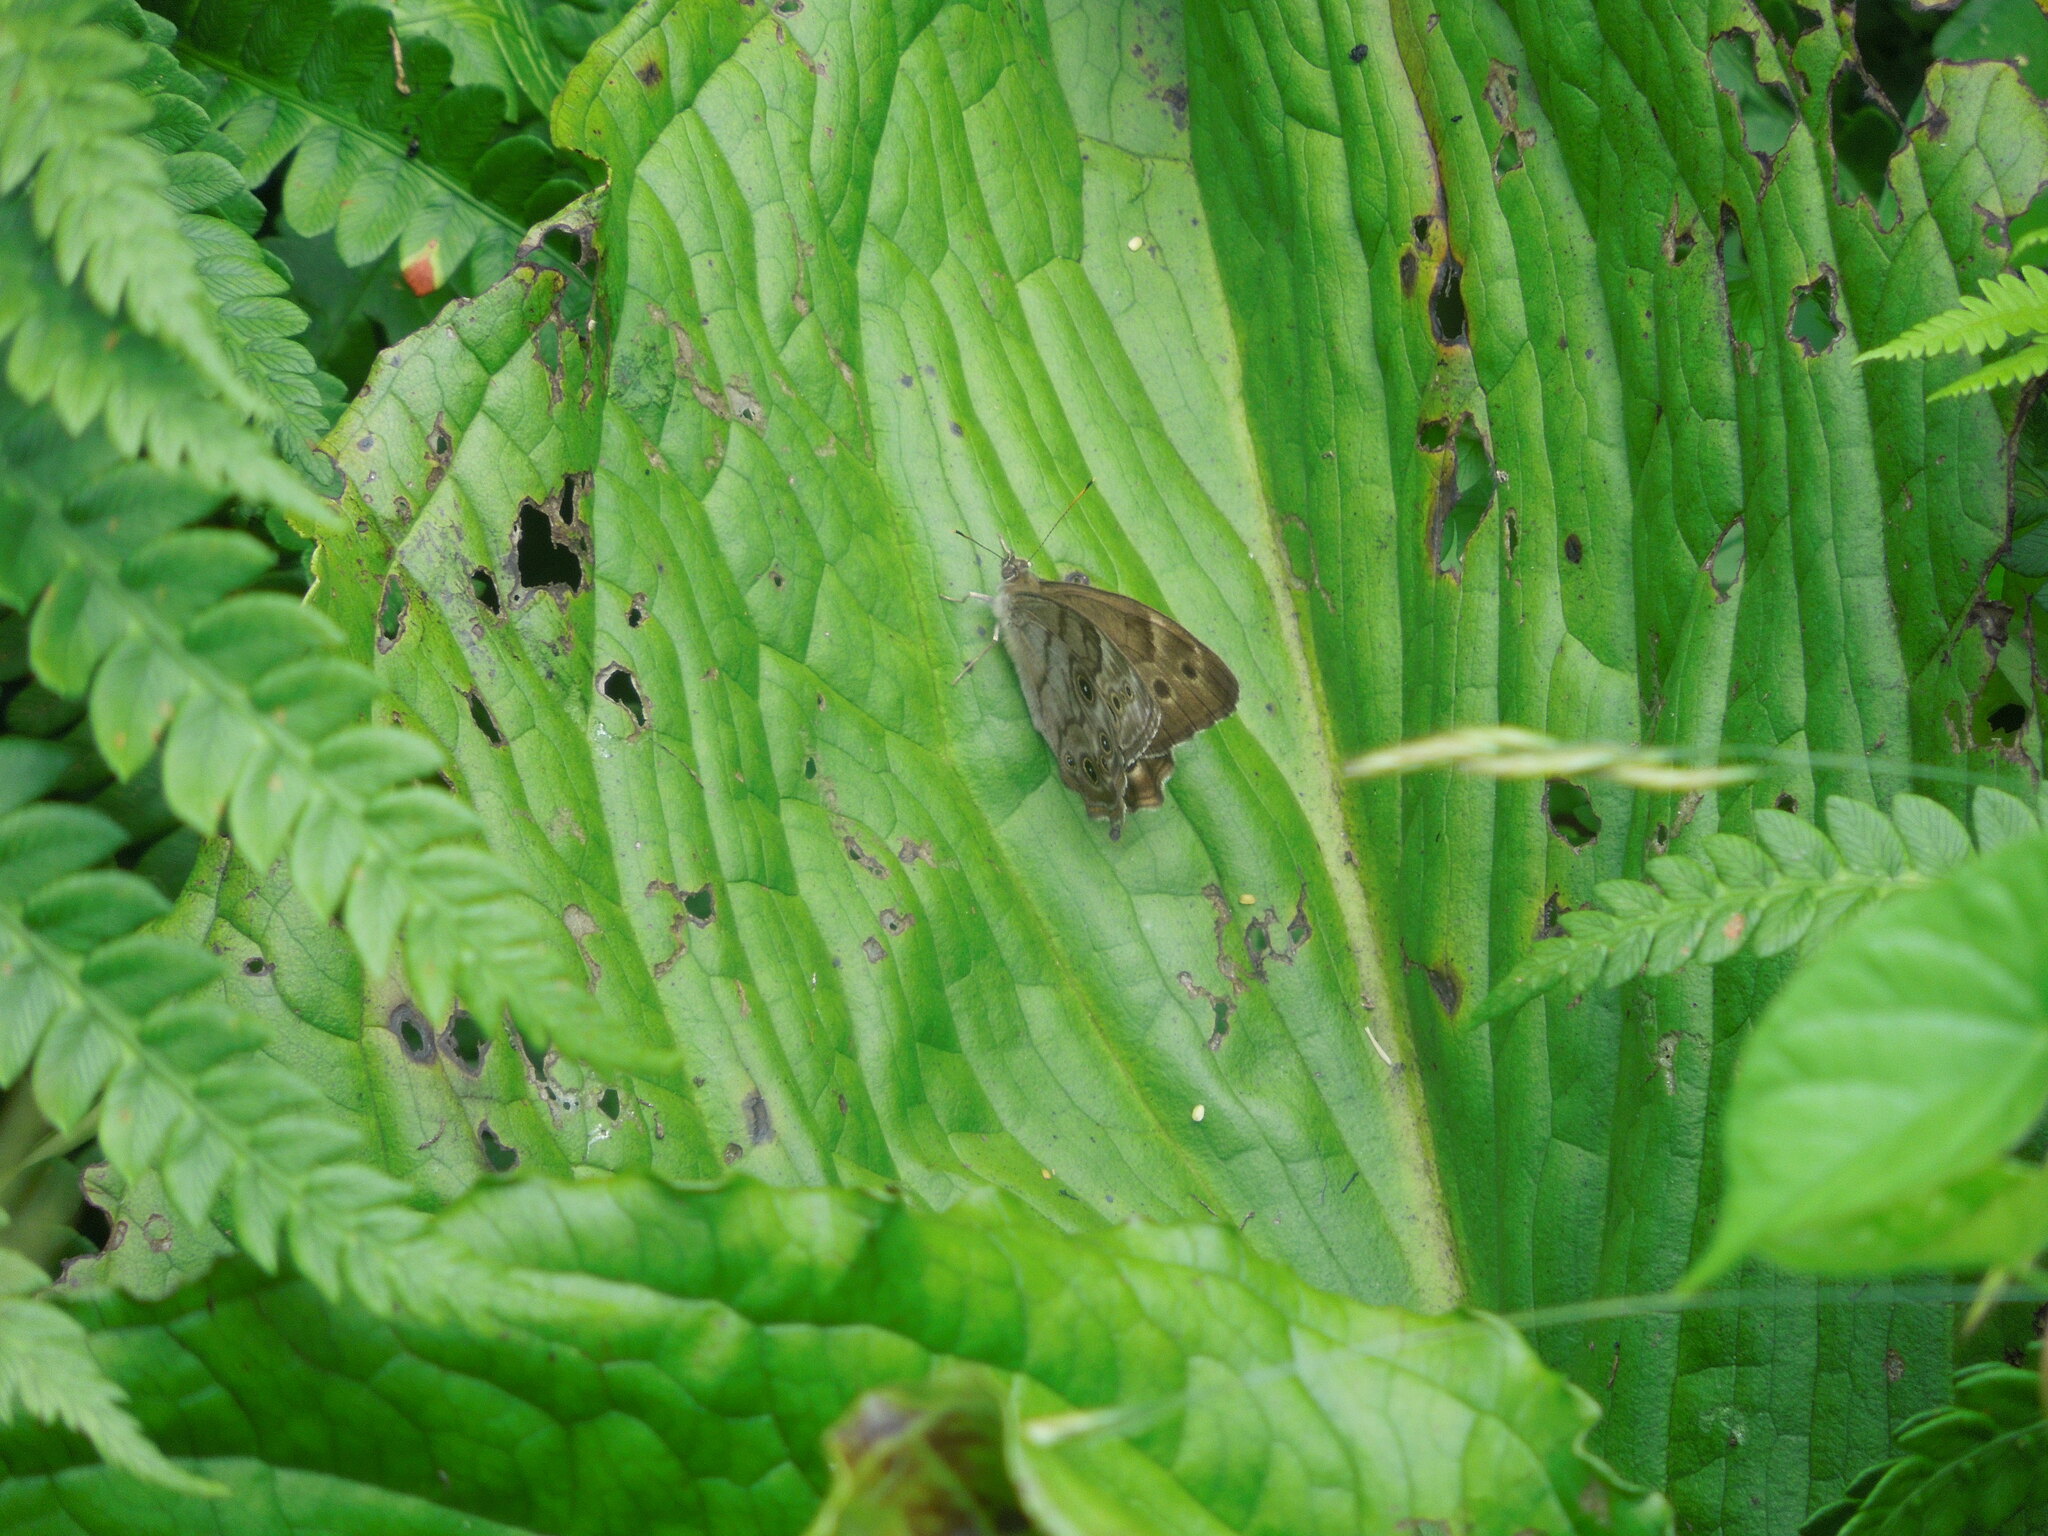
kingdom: Animalia
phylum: Arthropoda
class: Insecta
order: Lepidoptera
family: Nymphalidae
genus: Lethe
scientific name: Lethe anthedon
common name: Northern pearly-eye
